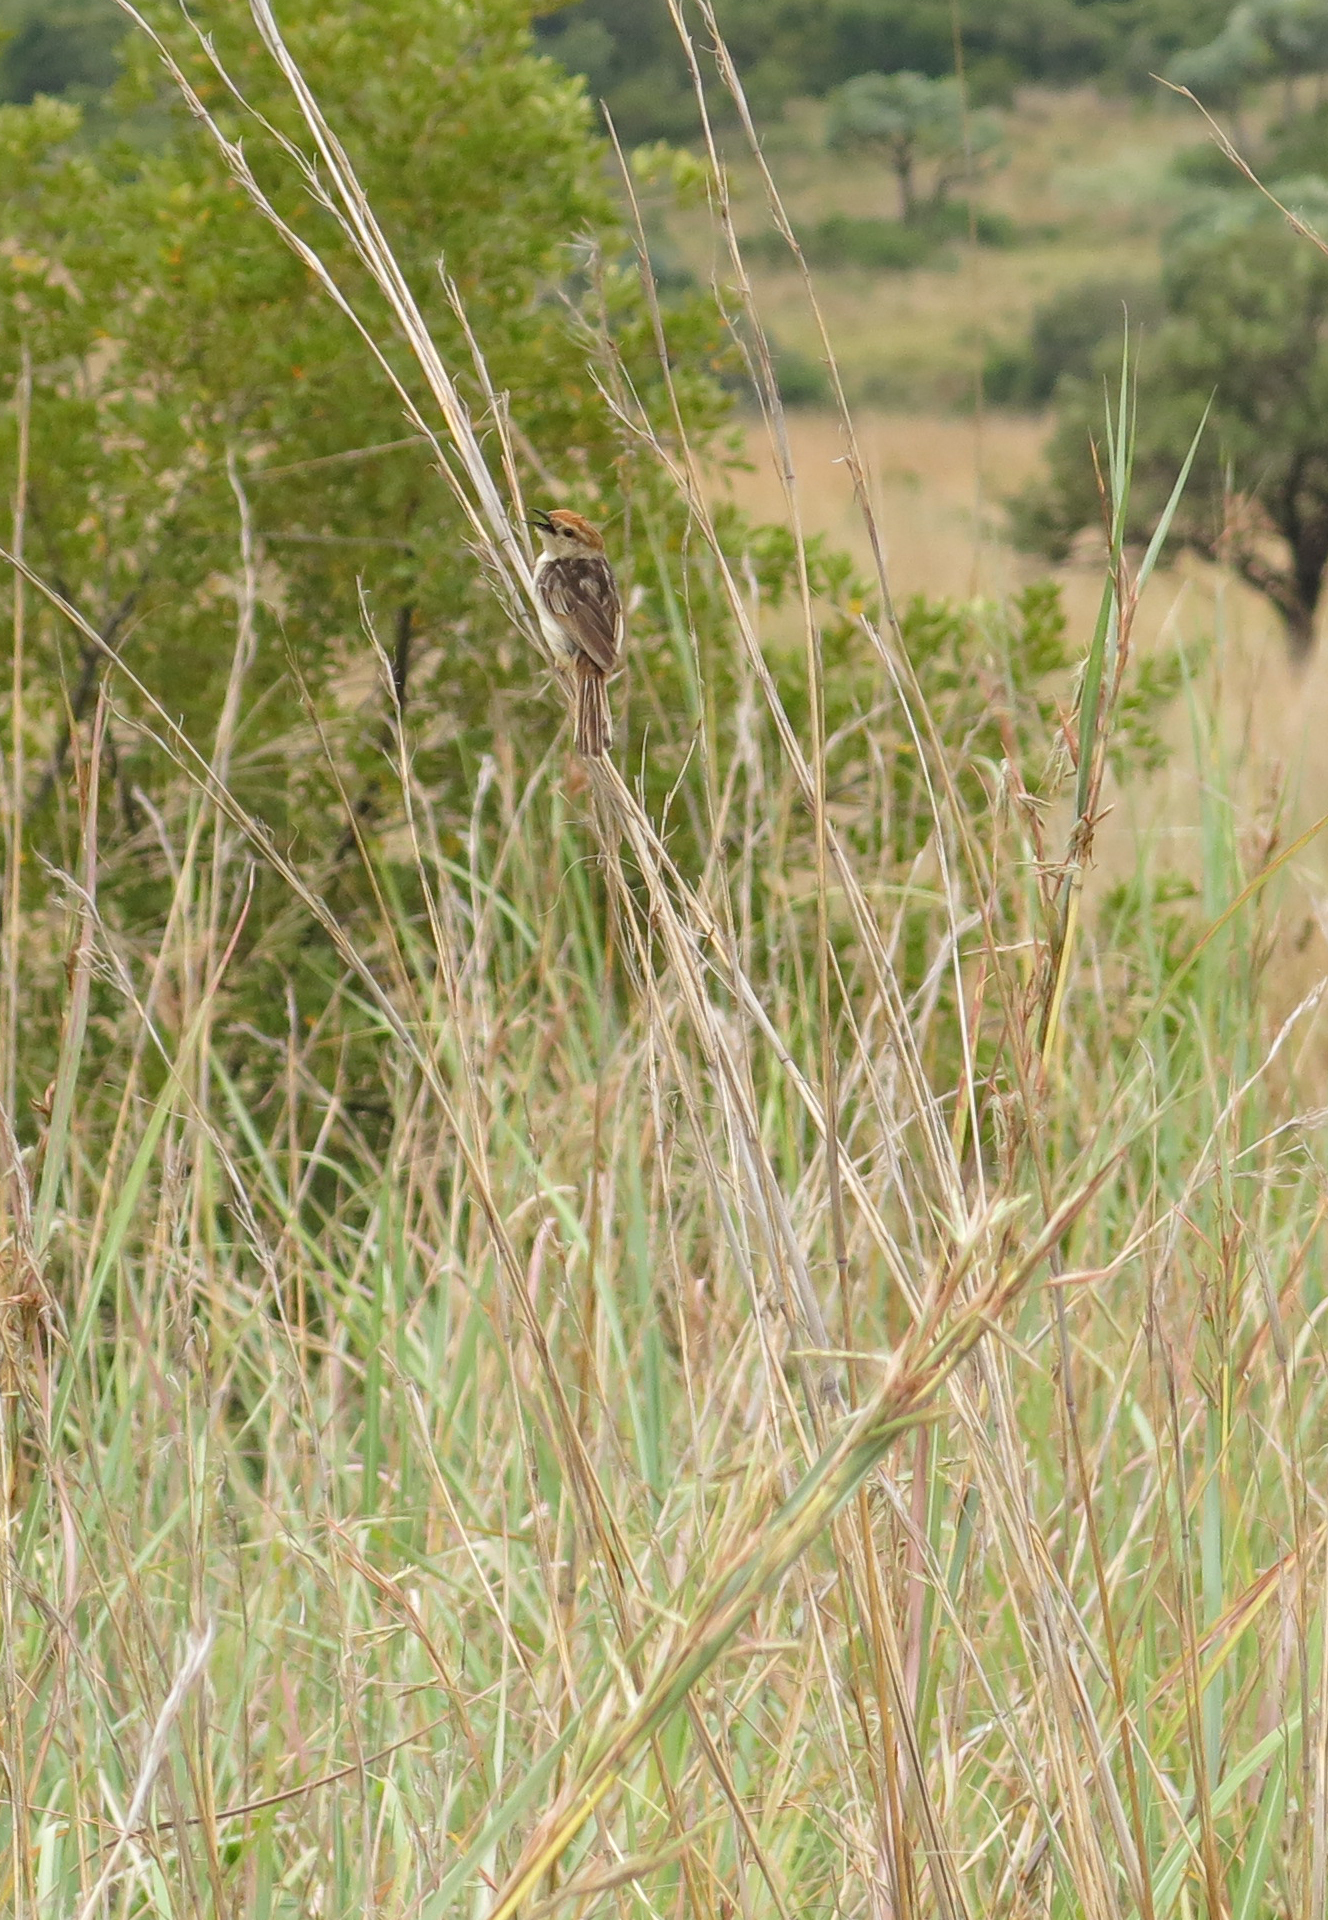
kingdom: Animalia
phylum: Chordata
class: Aves
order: Passeriformes
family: Cisticolidae
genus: Cisticola
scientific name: Cisticola tinniens
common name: Levaillant's cisticola
